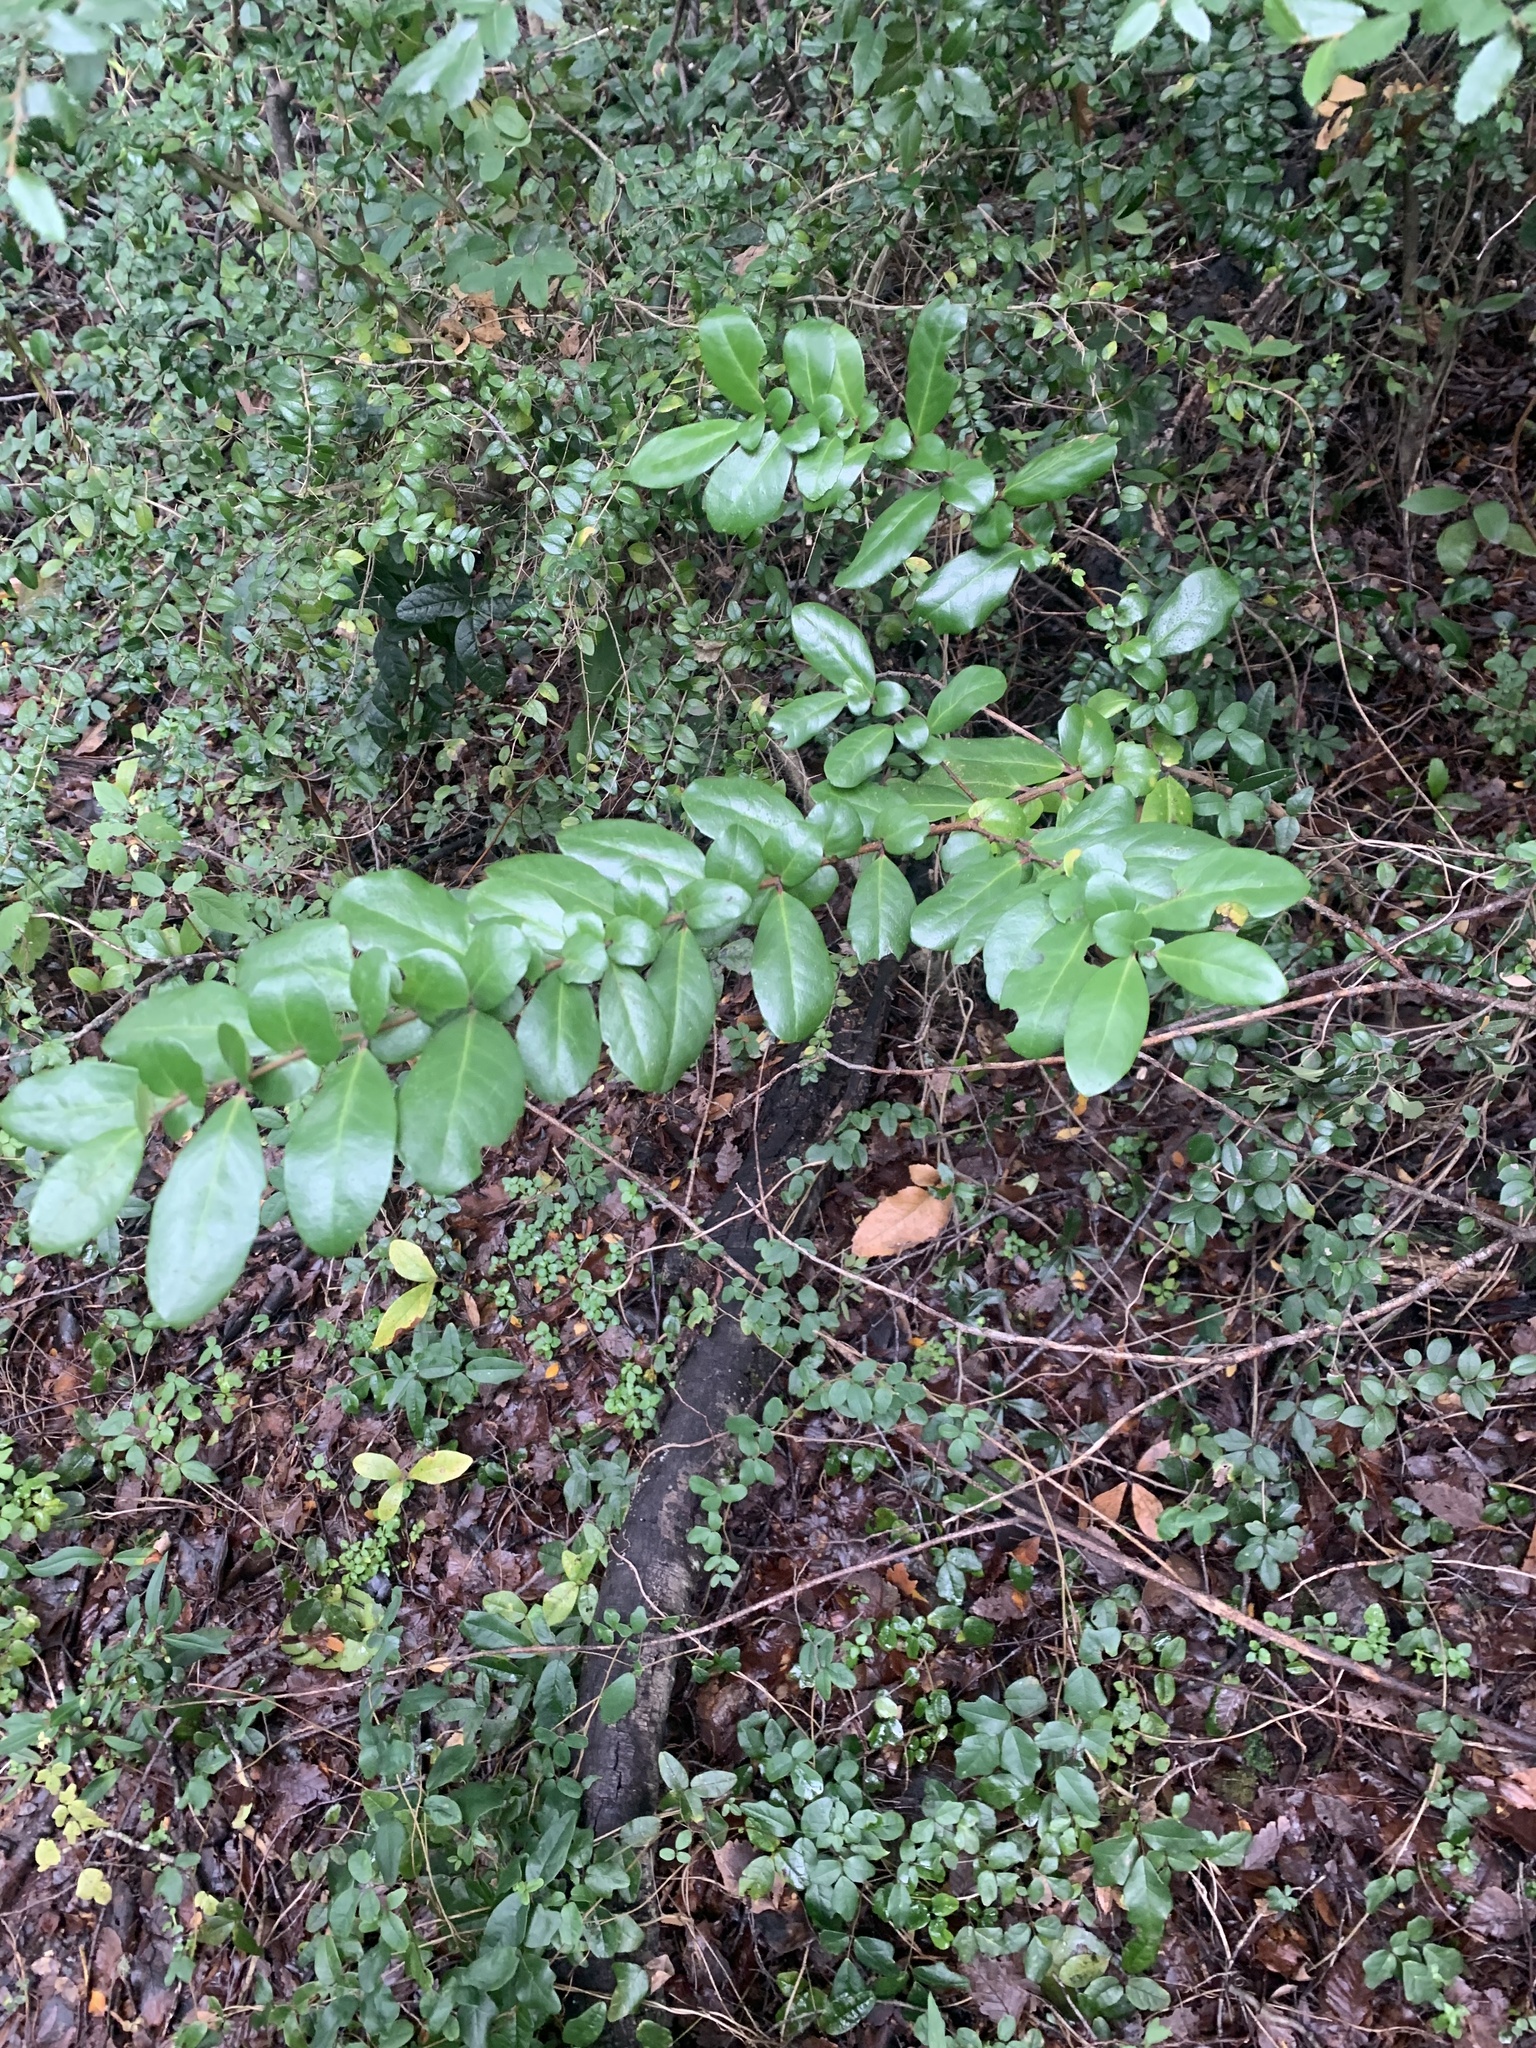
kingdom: Plantae
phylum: Tracheophyta
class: Magnoliopsida
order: Malpighiales
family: Salicaceae
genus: Azara
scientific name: Azara integrifolia
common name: Goldspire
